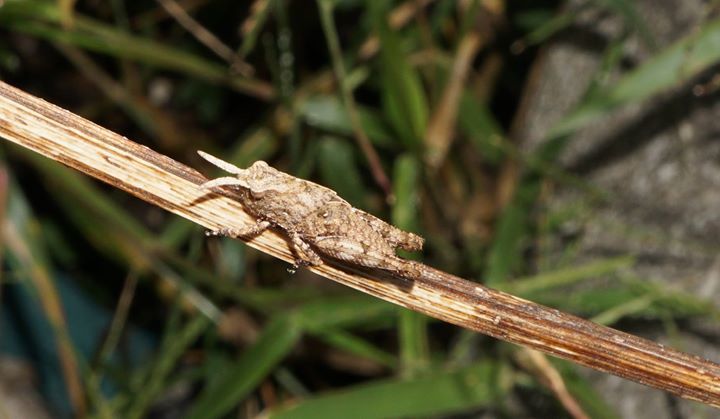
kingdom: Animalia
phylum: Arthropoda
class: Insecta
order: Orthoptera
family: Acrididae
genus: Chortophaga
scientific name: Chortophaga australior
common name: Southern green-striped grasshopper
